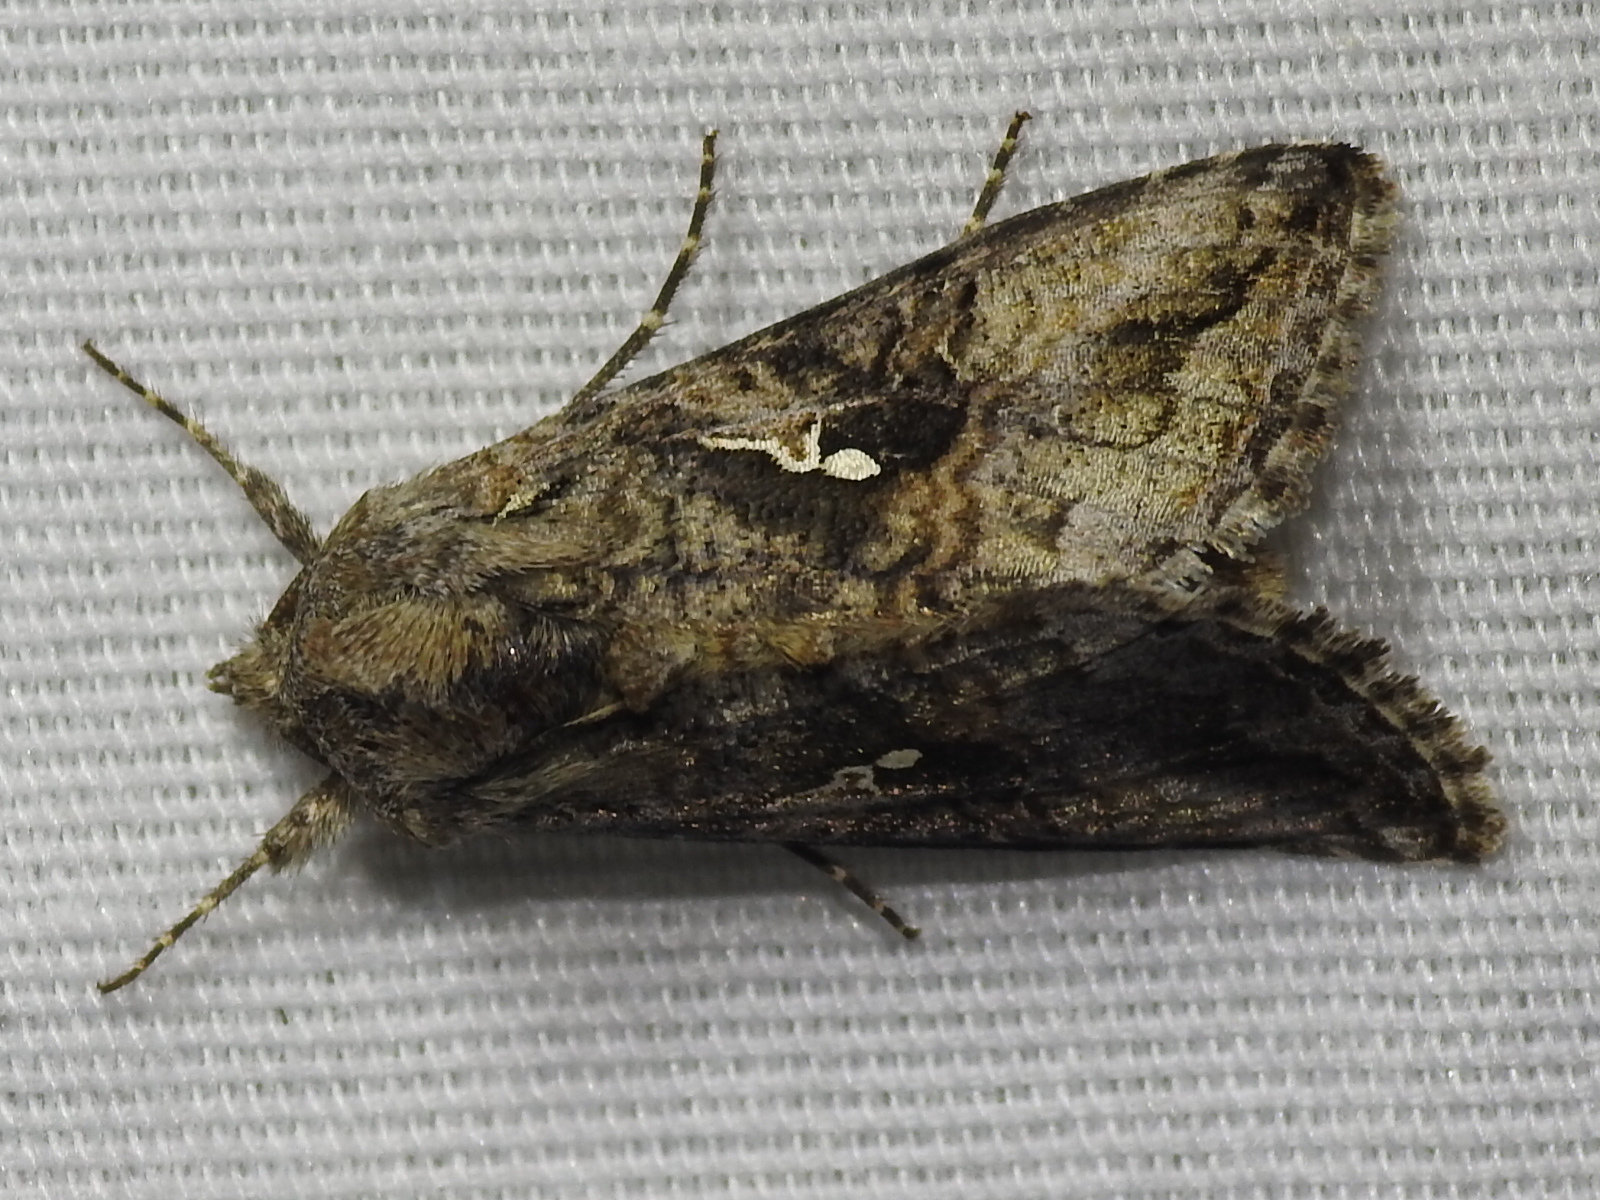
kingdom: Animalia
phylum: Arthropoda
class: Insecta
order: Lepidoptera
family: Noctuidae
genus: Rachiplusia
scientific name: Rachiplusia ou
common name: Gray looper moth
